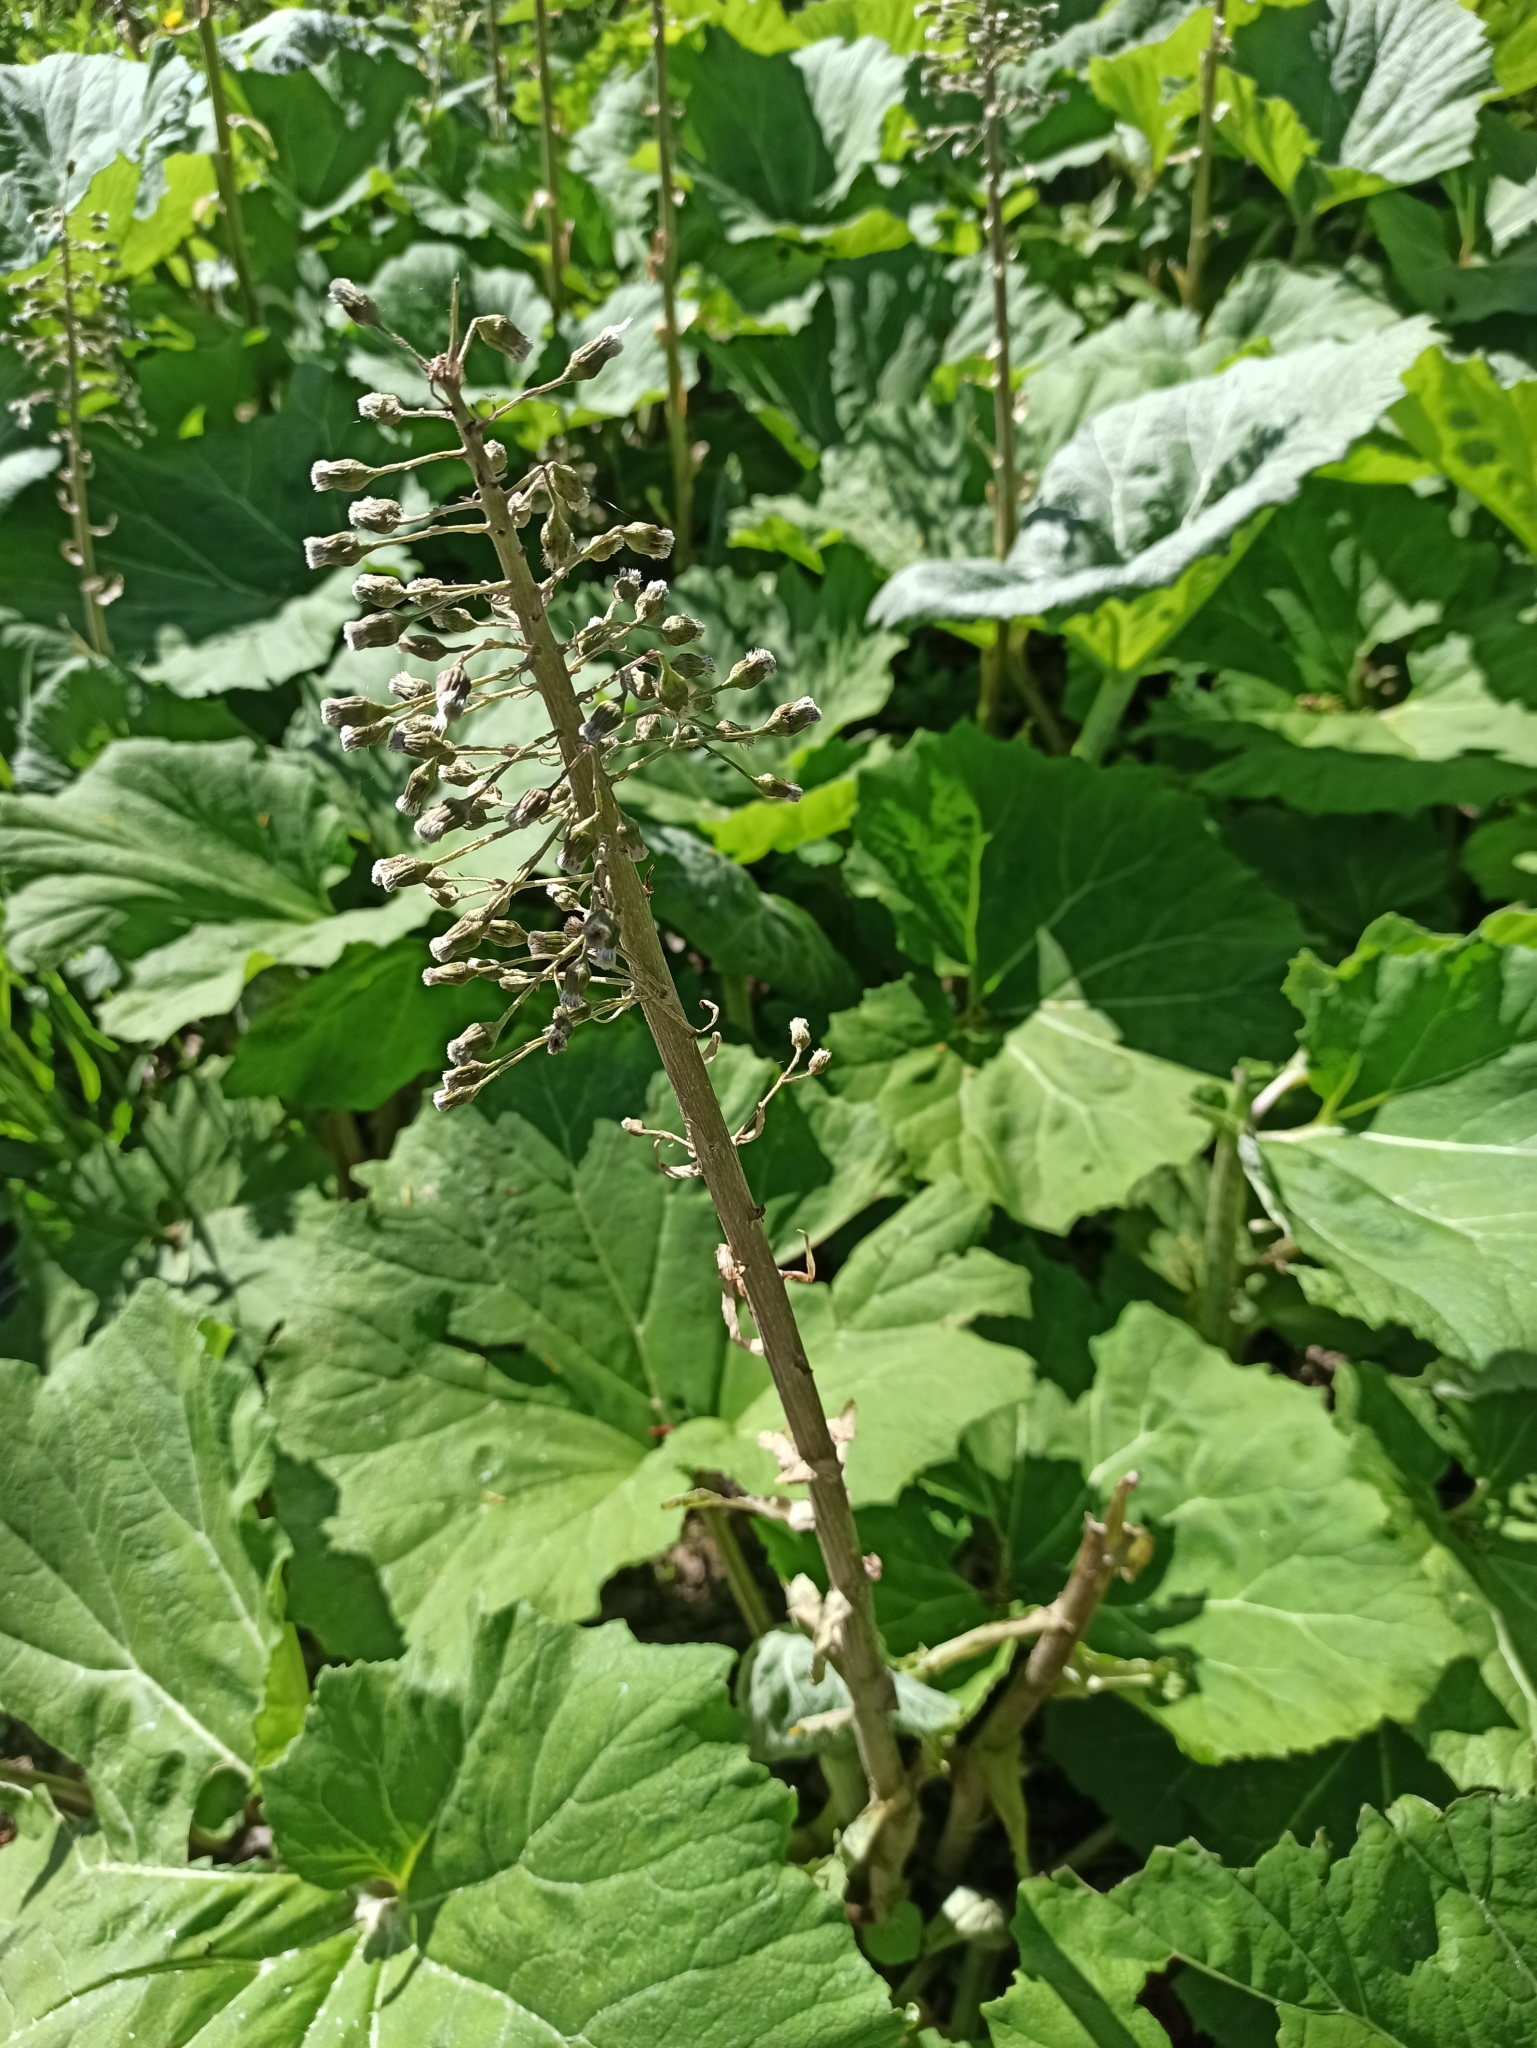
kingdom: Plantae
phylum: Tracheophyta
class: Magnoliopsida
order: Asterales
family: Asteraceae
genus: Petasites
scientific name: Petasites hybridus
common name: Butterbur
